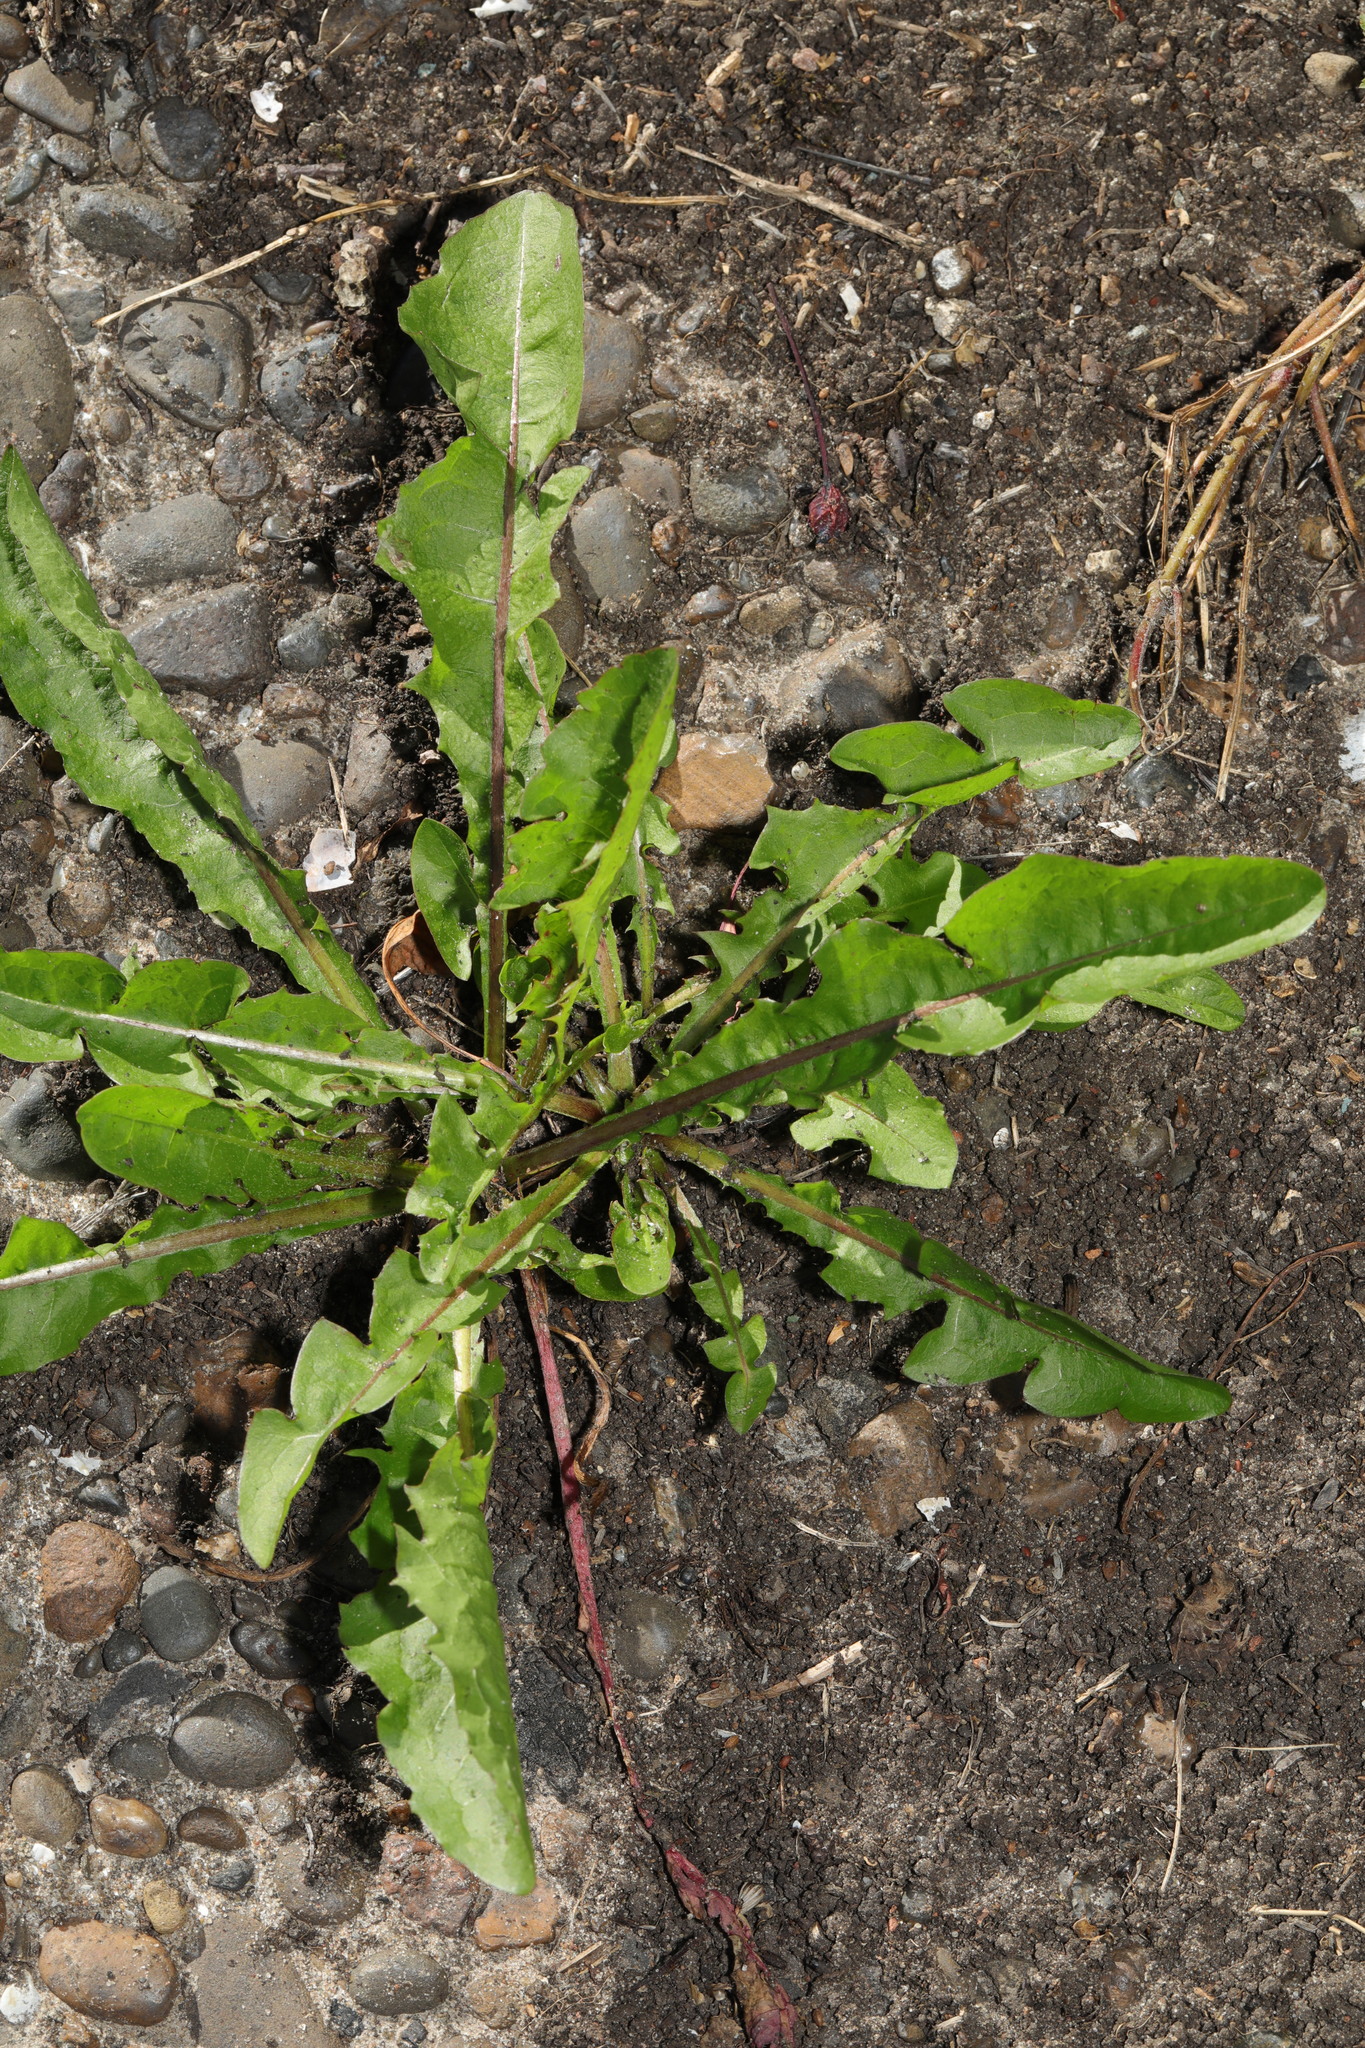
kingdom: Plantae
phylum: Tracheophyta
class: Magnoliopsida
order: Asterales
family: Asteraceae
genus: Taraxacum
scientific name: Taraxacum officinale
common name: Common dandelion
